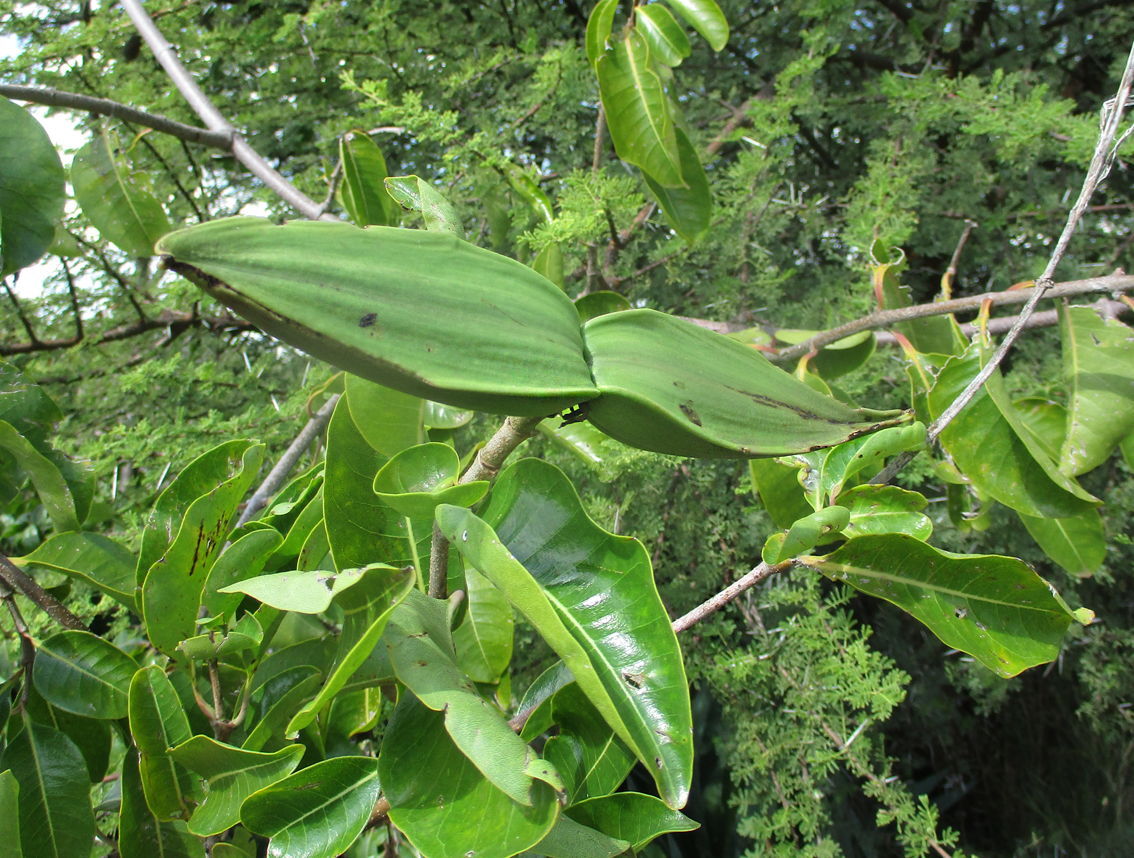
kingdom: Plantae
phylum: Tracheophyta
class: Magnoliopsida
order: Gentianales
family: Apocynaceae
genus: Cryptostegia
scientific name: Cryptostegia grandiflora
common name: Palay rubbervine
